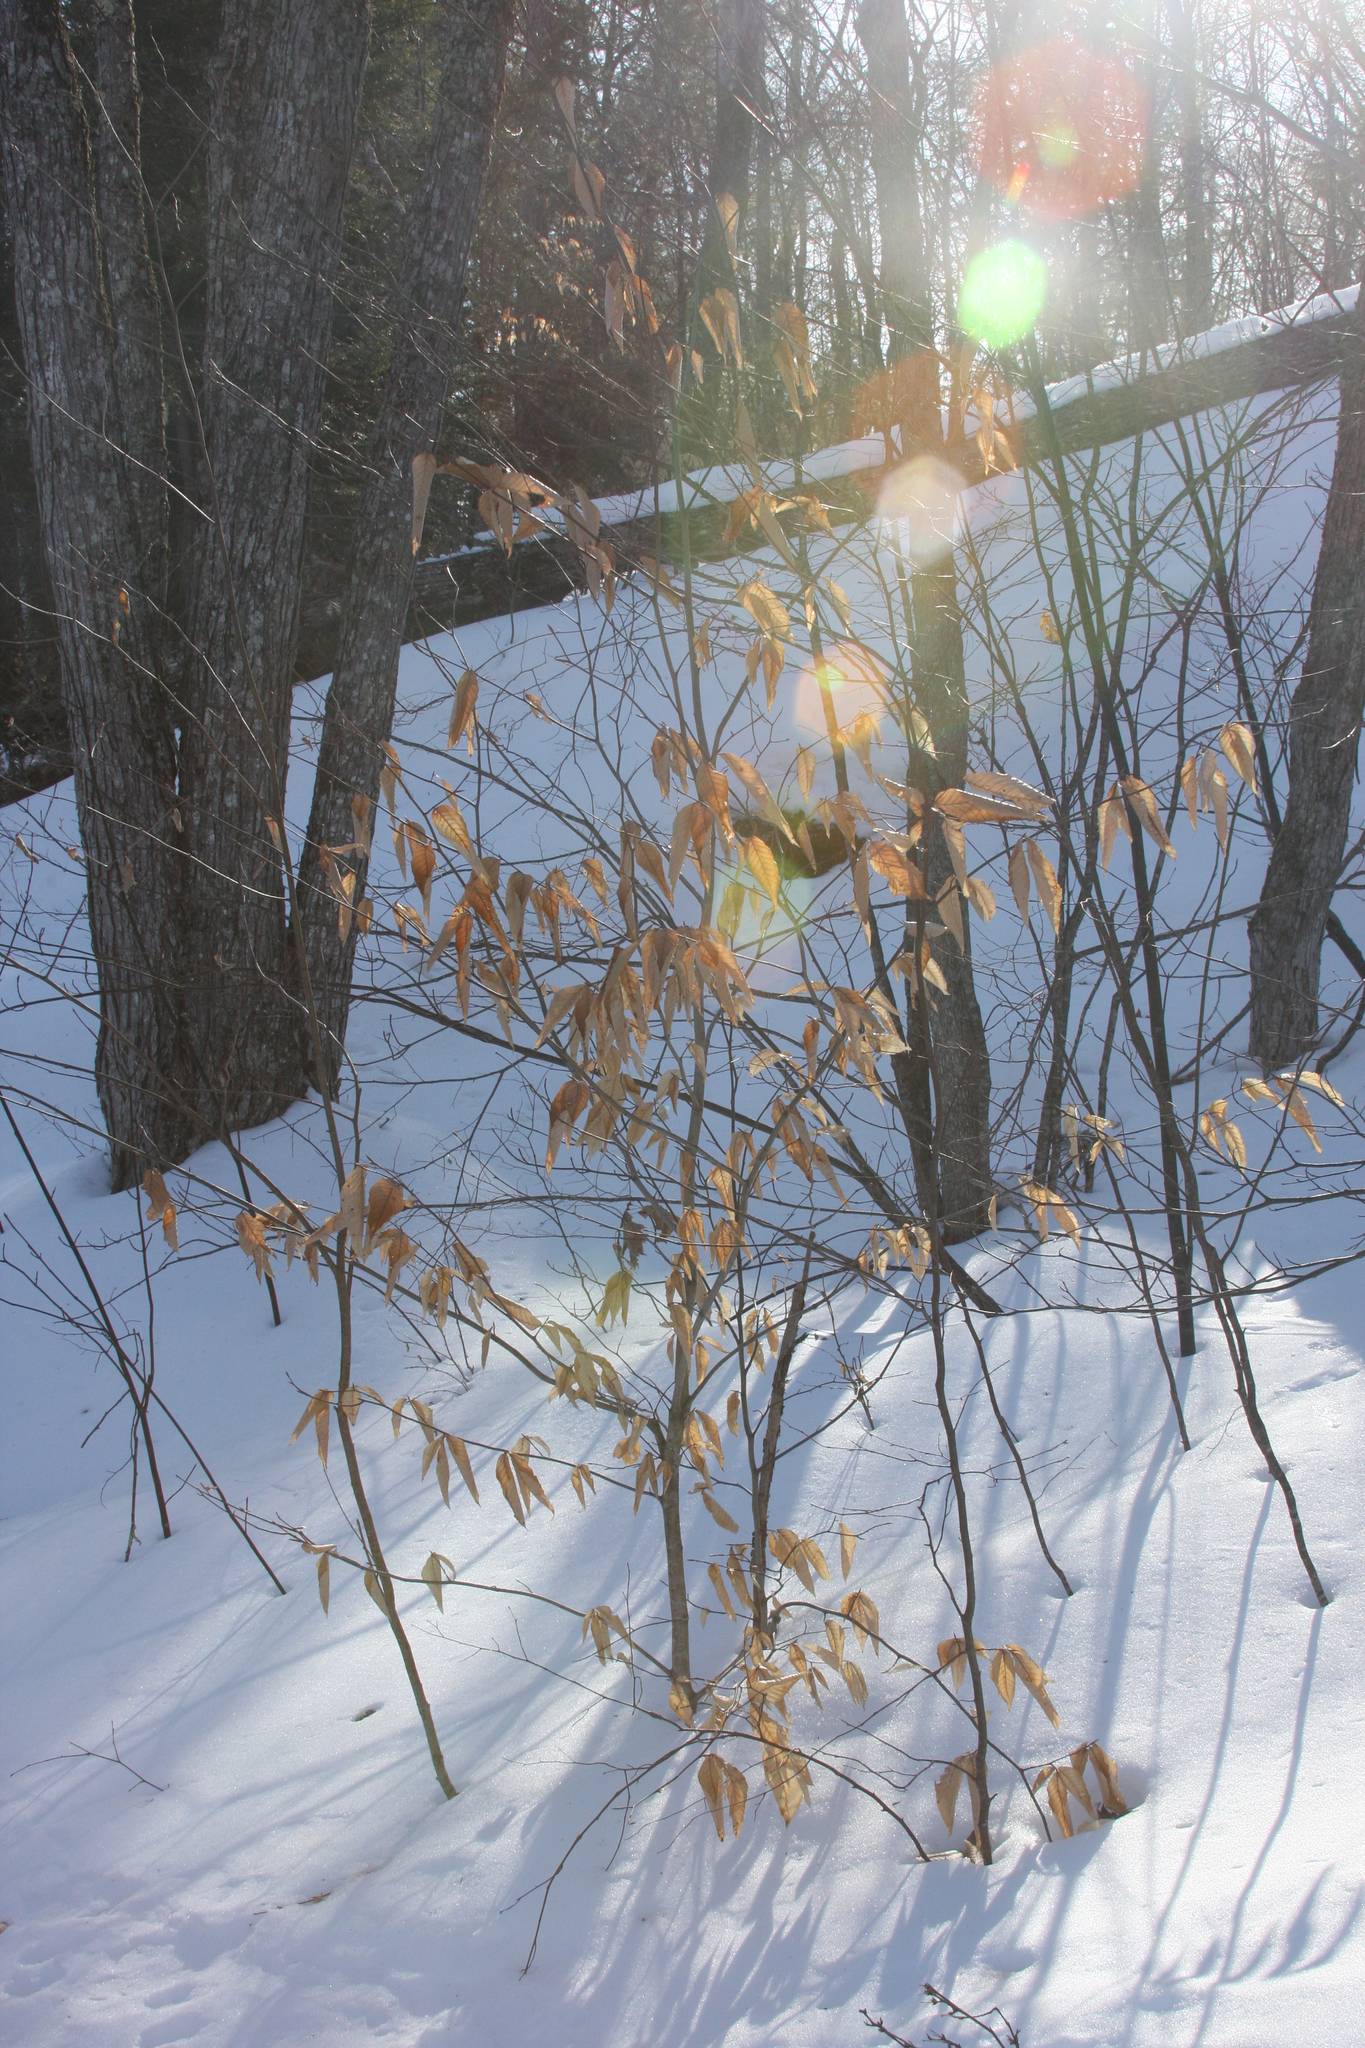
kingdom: Plantae
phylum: Tracheophyta
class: Magnoliopsida
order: Fagales
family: Fagaceae
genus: Fagus
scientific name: Fagus grandifolia
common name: American beech
